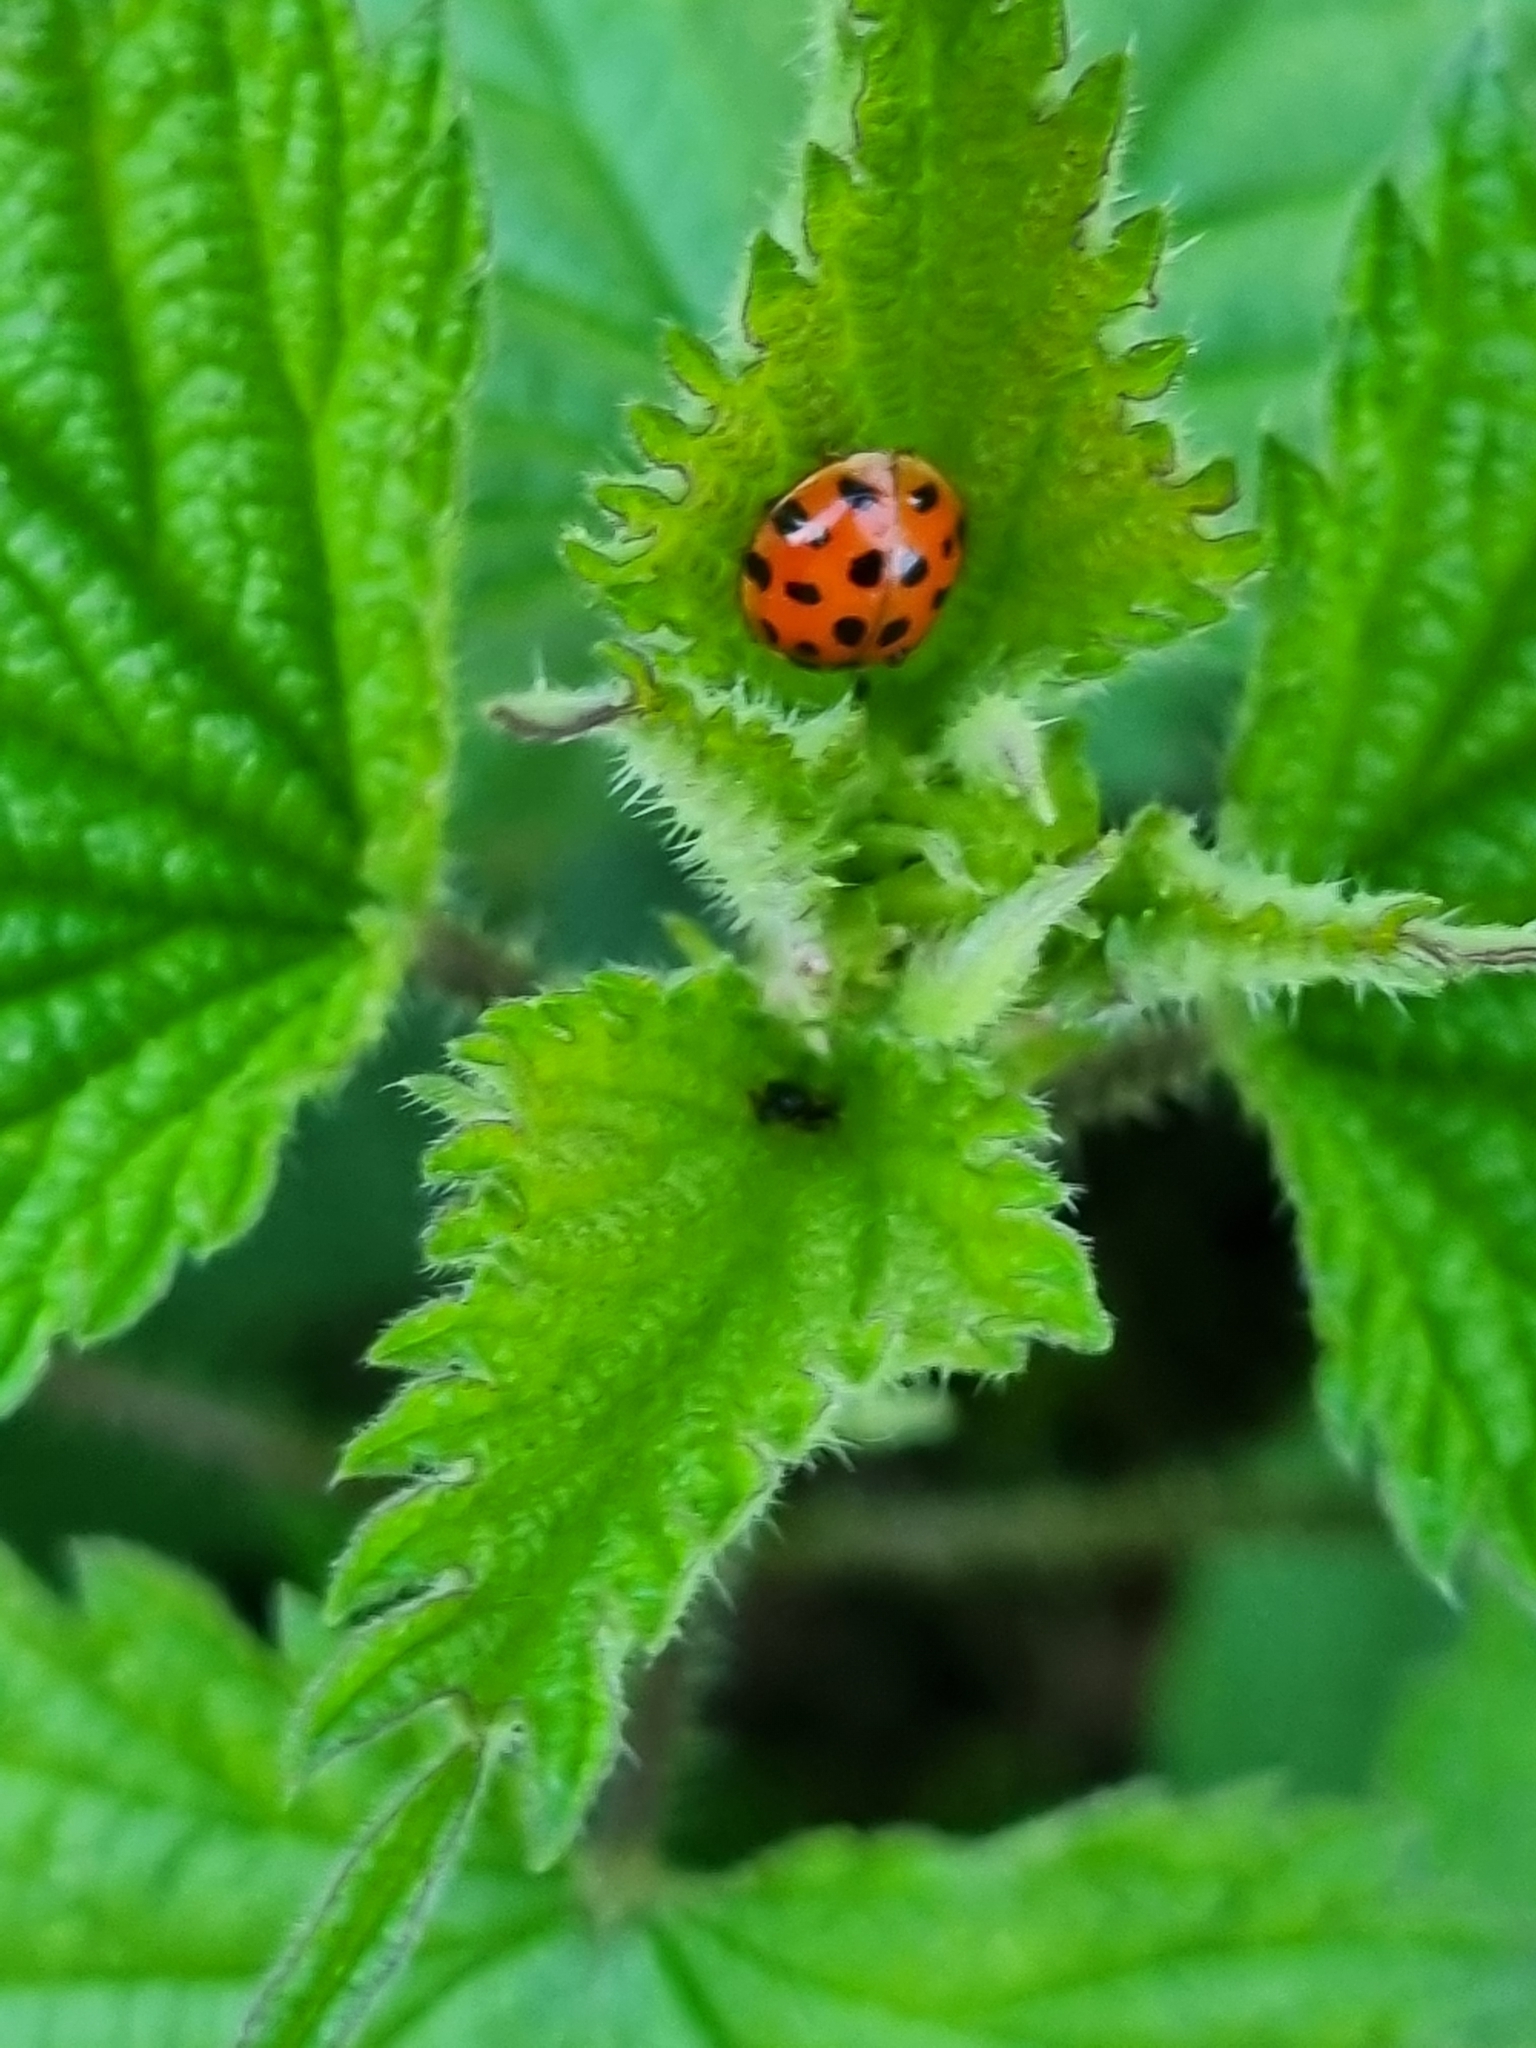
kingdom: Animalia
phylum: Arthropoda
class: Insecta
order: Coleoptera
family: Coccinellidae
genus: Harmonia
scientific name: Harmonia axyridis
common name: Harlequin ladybird
